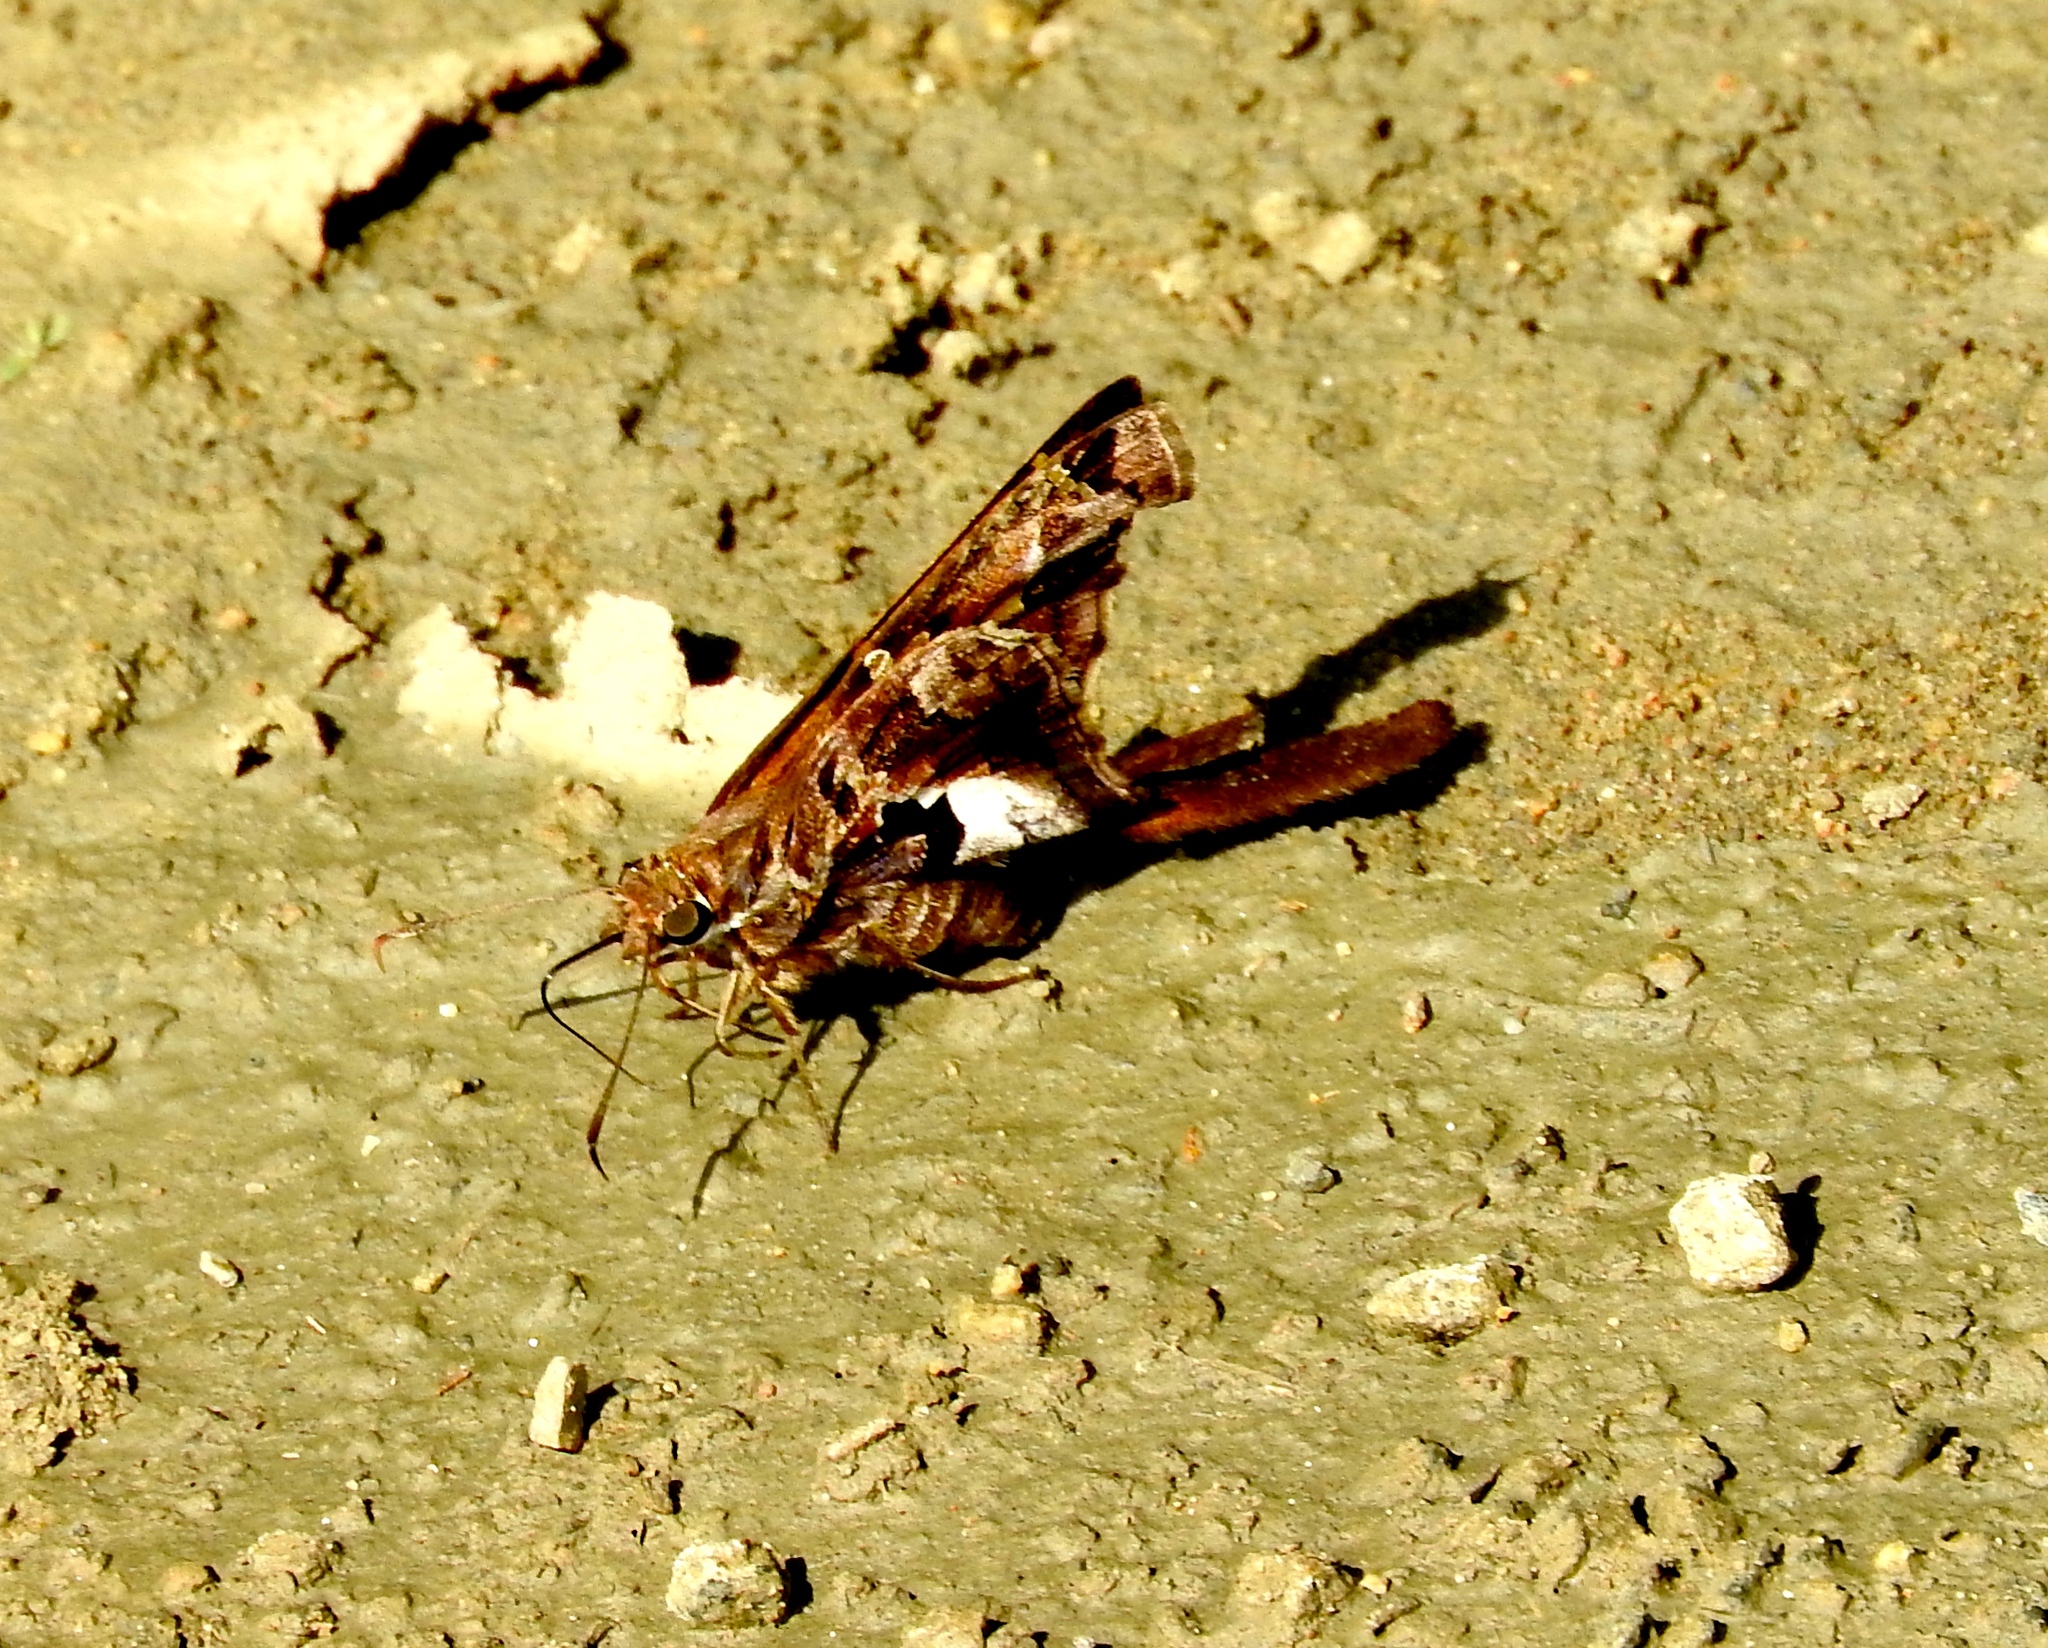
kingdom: Animalia
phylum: Arthropoda
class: Insecta
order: Lepidoptera
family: Hesperiidae
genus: Chioides
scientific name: Chioides zilpa
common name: Zilpa longtail
